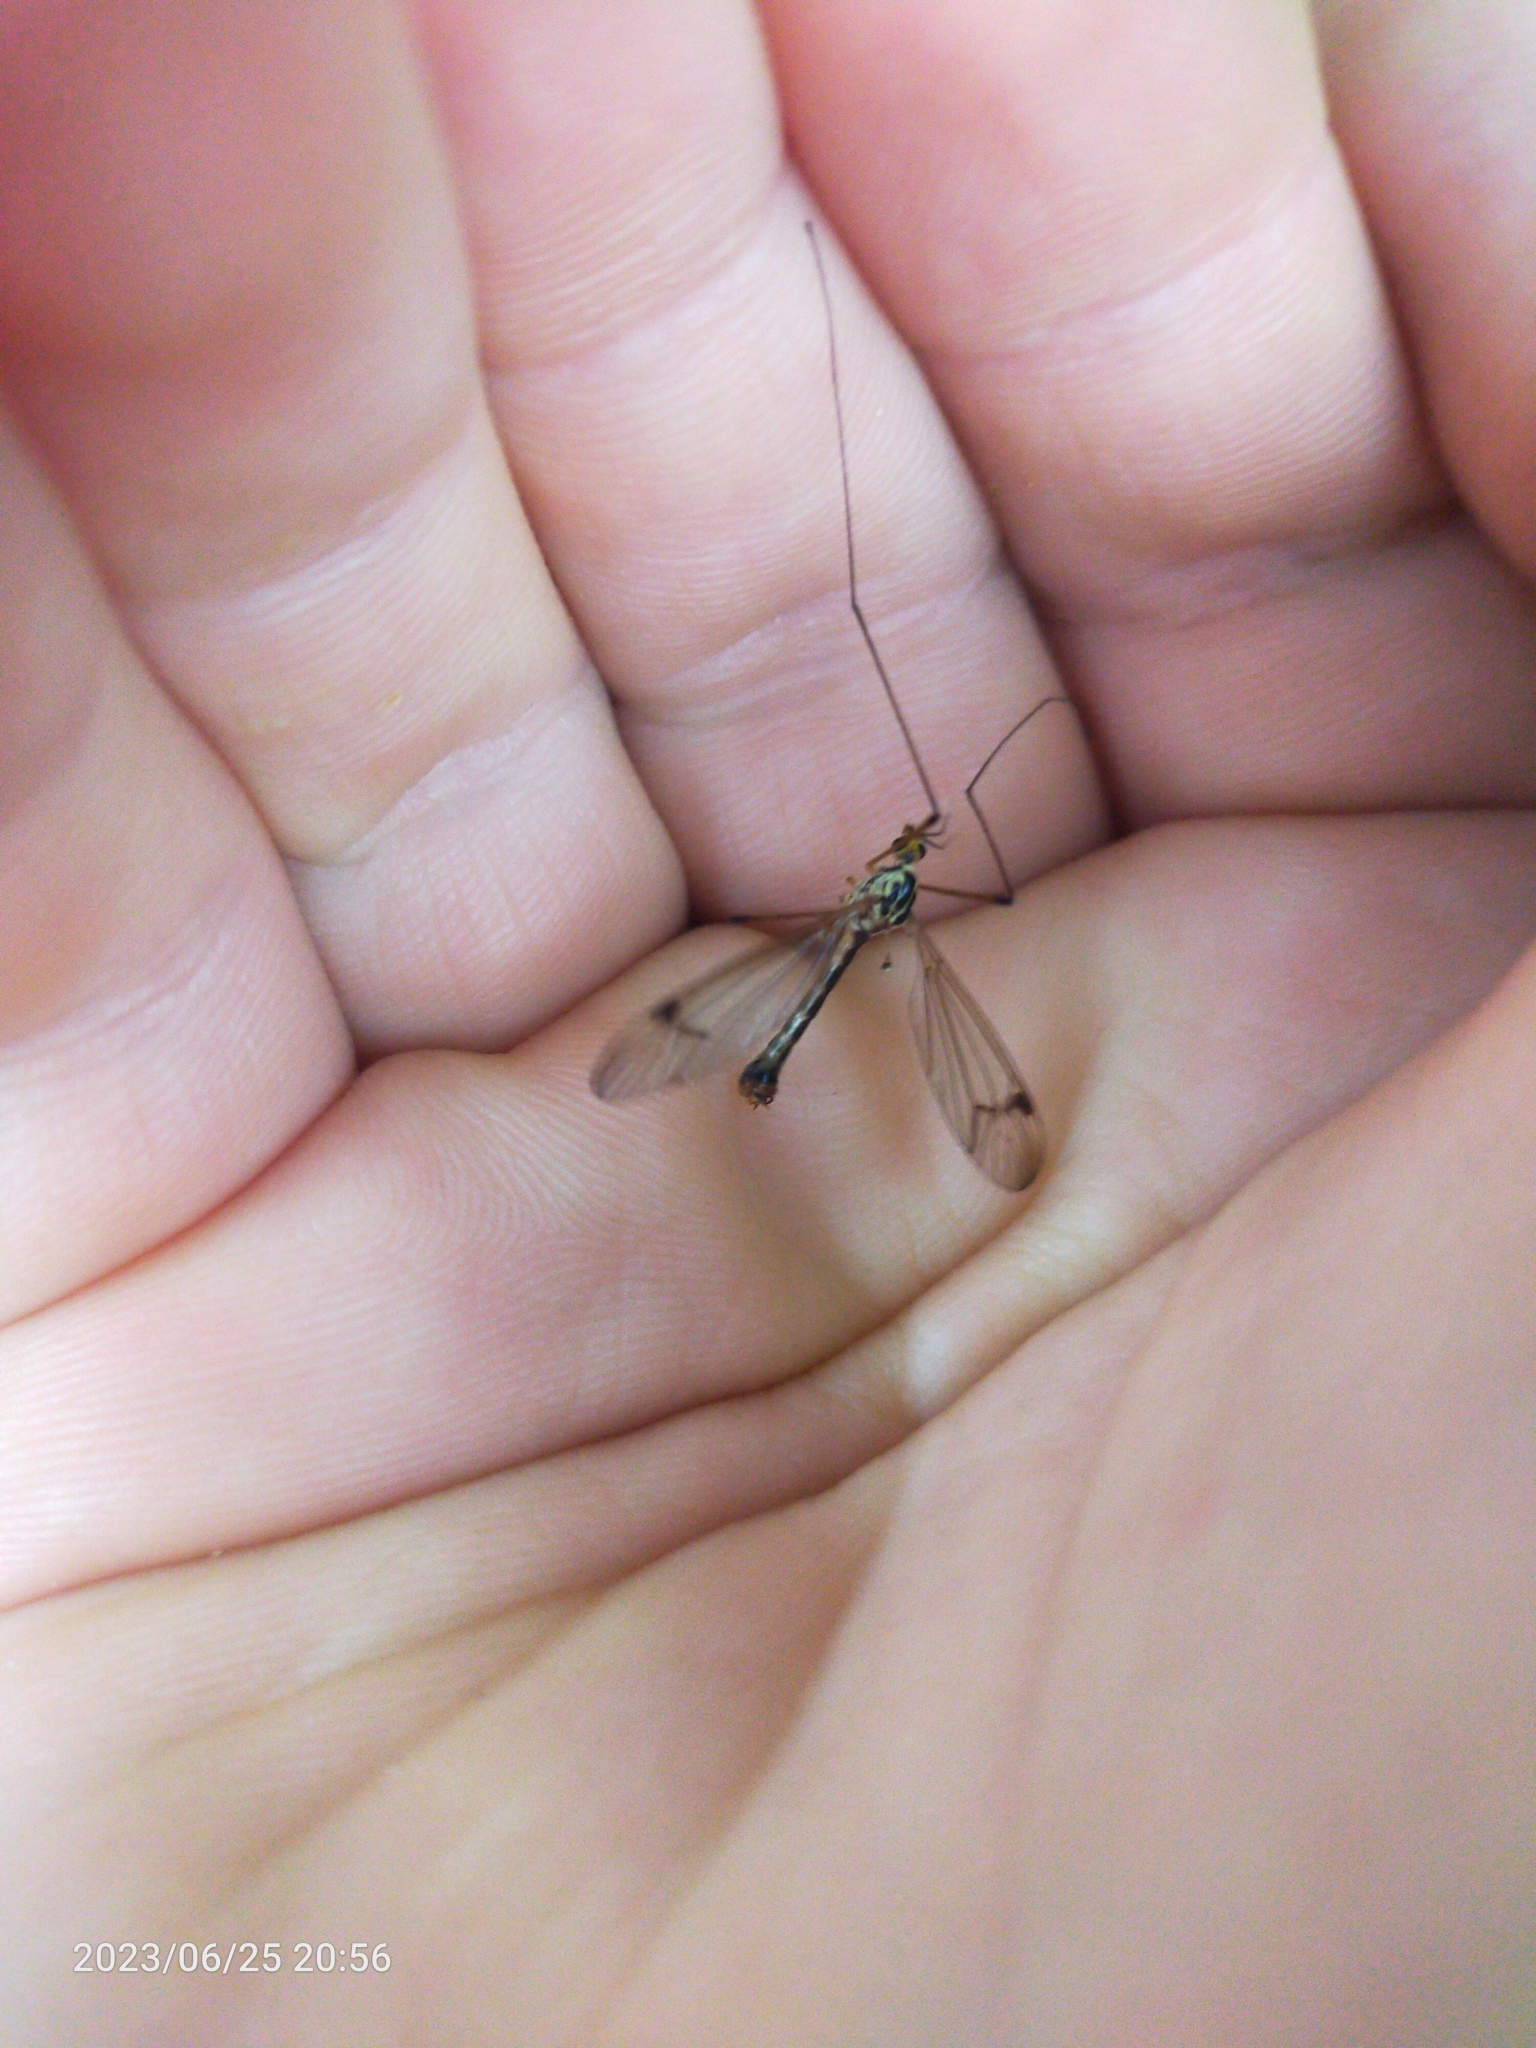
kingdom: Animalia
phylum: Arthropoda
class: Insecta
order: Diptera
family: Tipulidae
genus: Nephrotoma
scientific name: Nephrotoma quadrifaria
